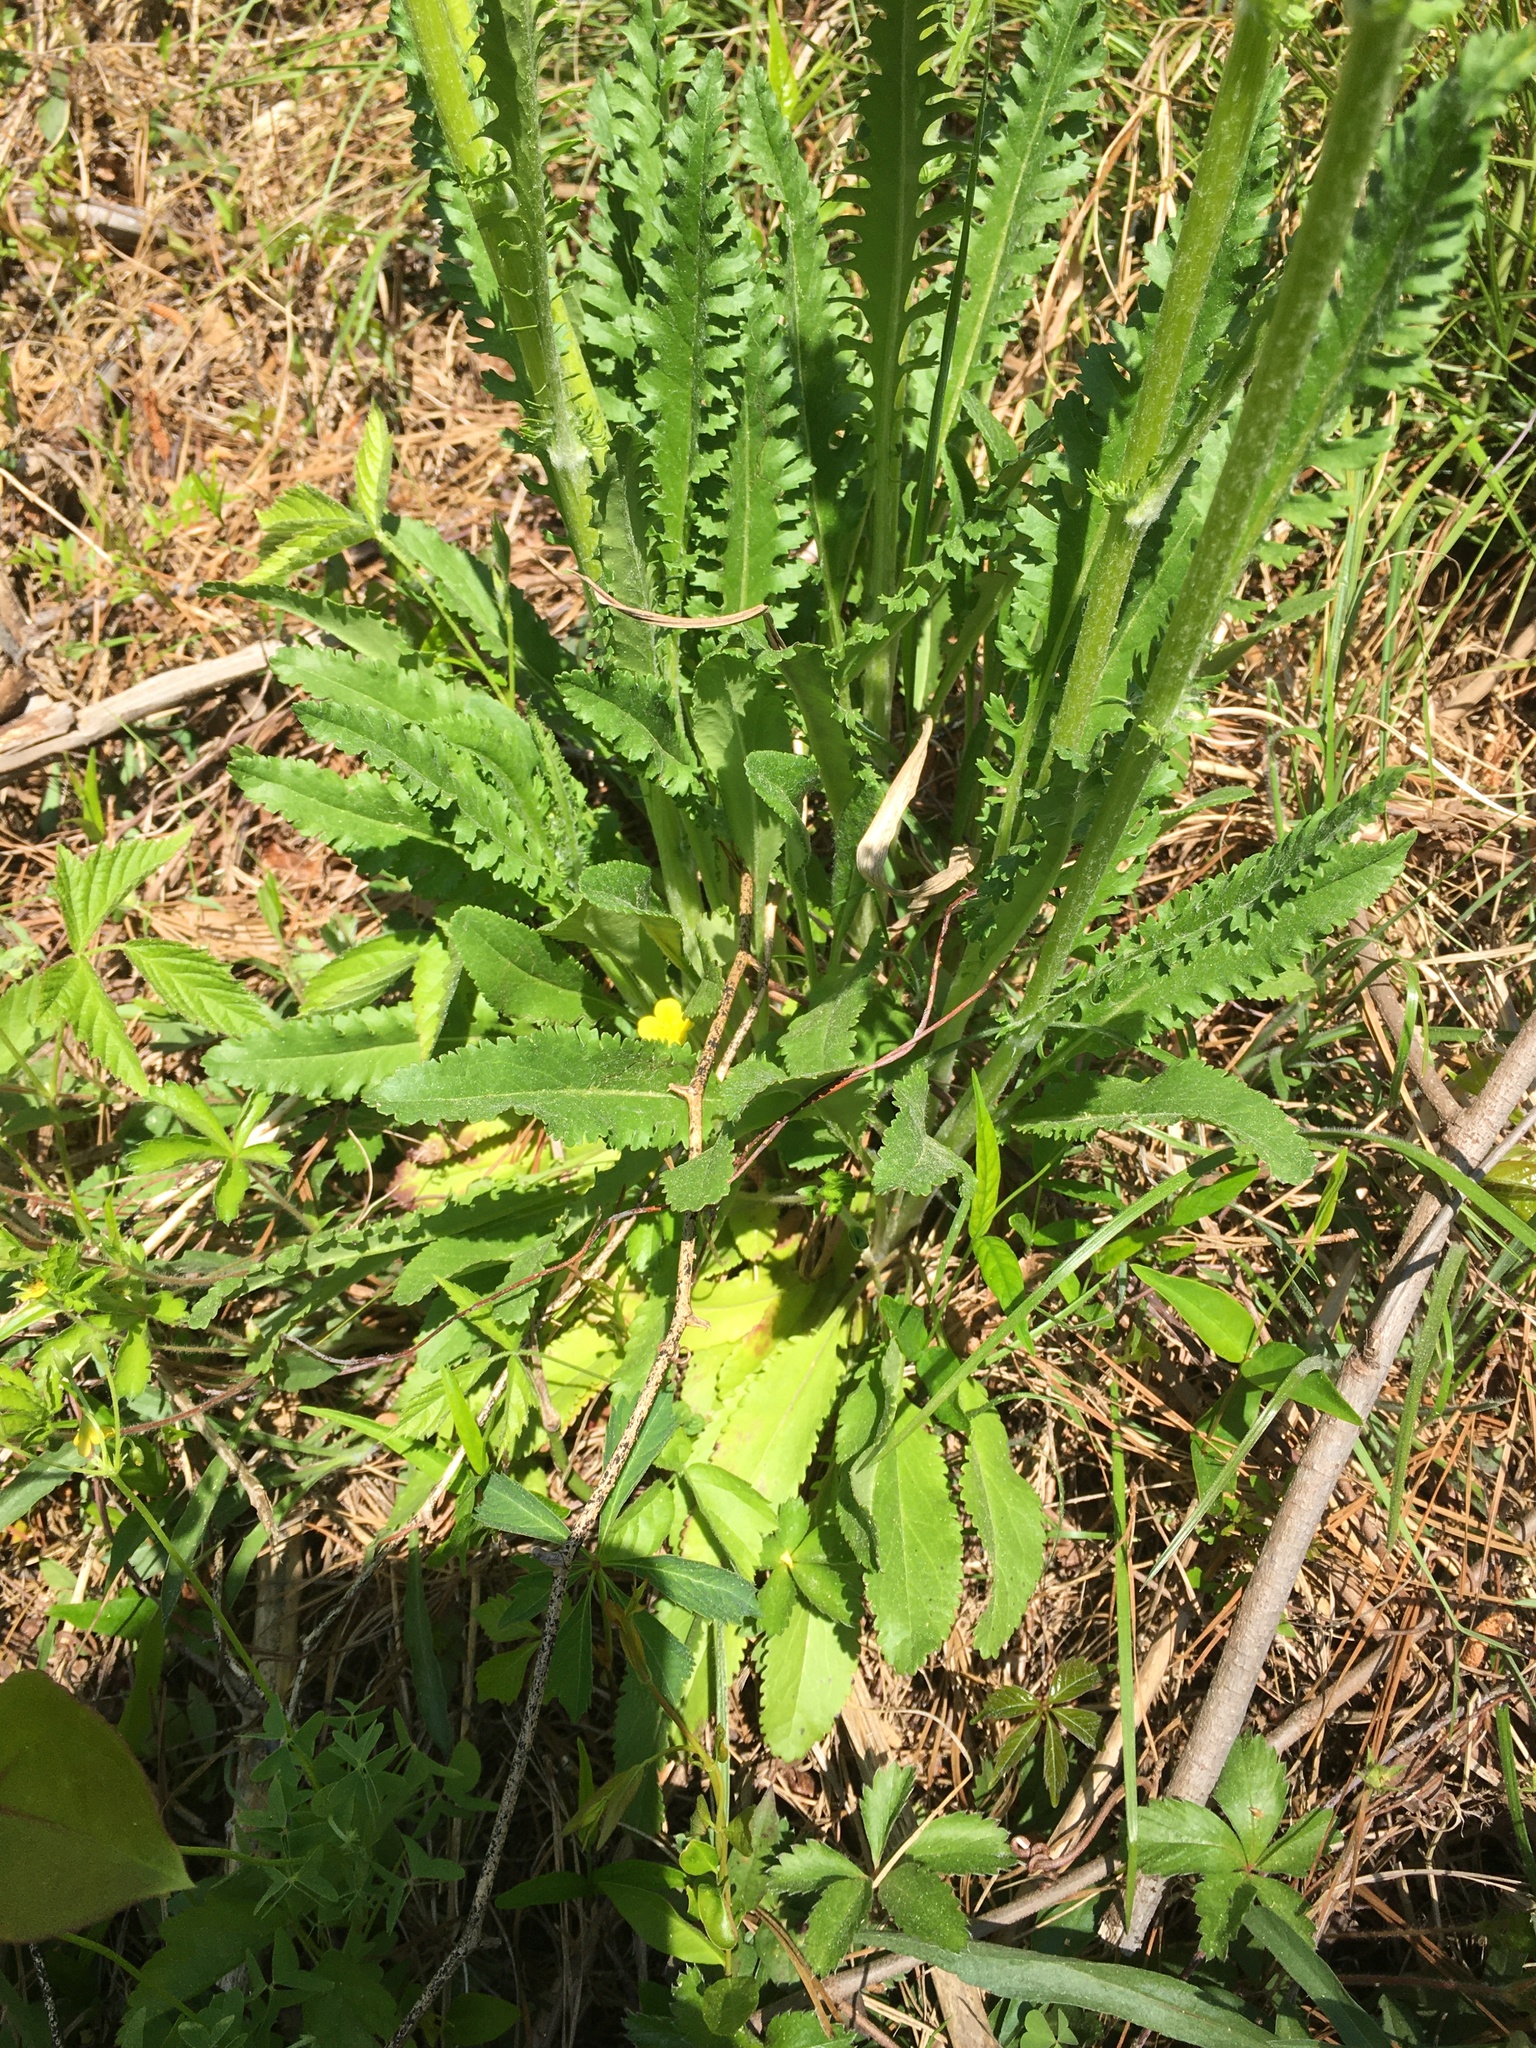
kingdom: Plantae
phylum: Tracheophyta
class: Magnoliopsida
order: Asterales
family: Asteraceae
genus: Packera
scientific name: Packera anonyma
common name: Small ragwort
